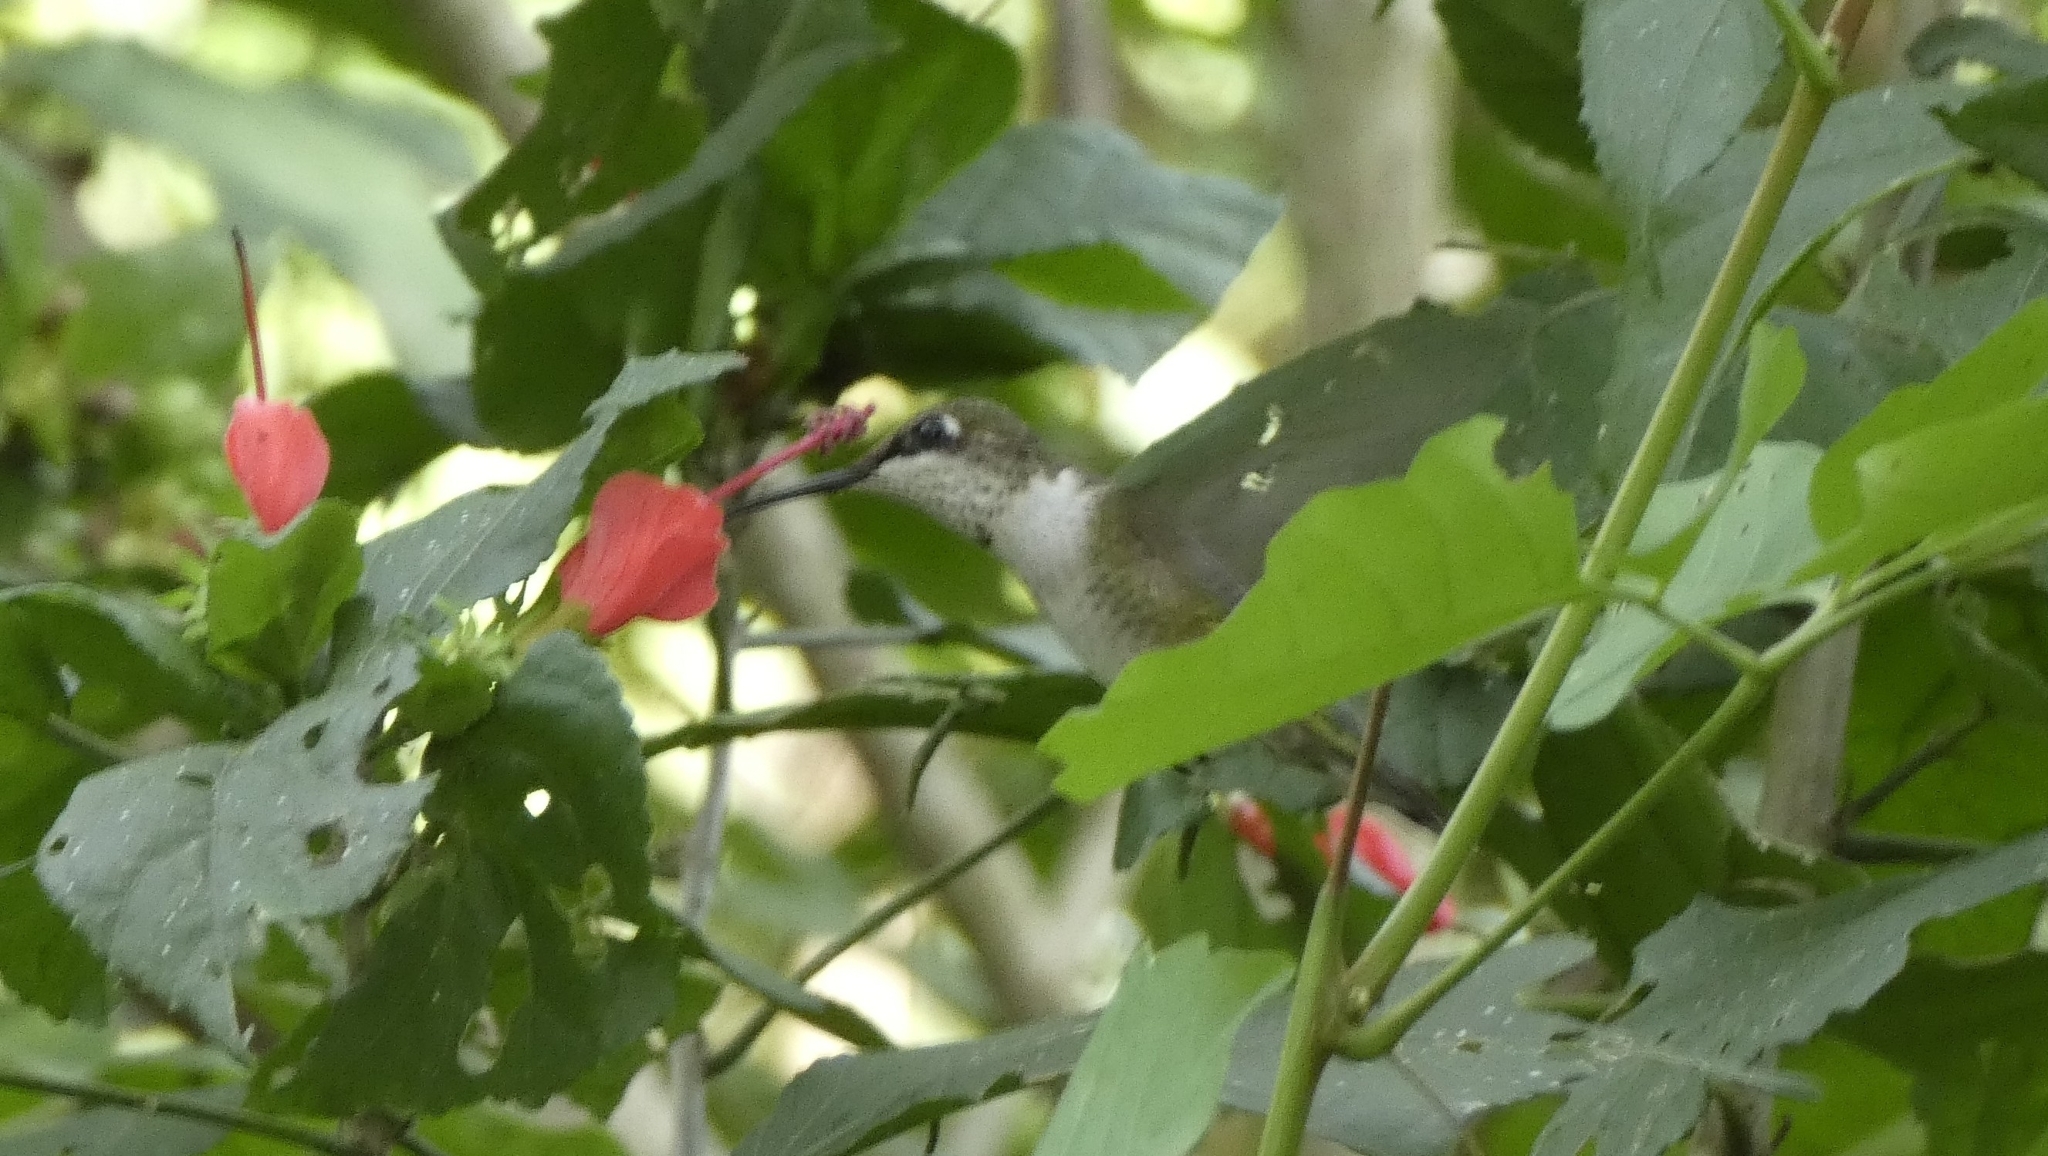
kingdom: Animalia
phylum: Chordata
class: Aves
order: Apodiformes
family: Trochilidae
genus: Archilochus
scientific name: Archilochus colubris
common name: Ruby-throated hummingbird
